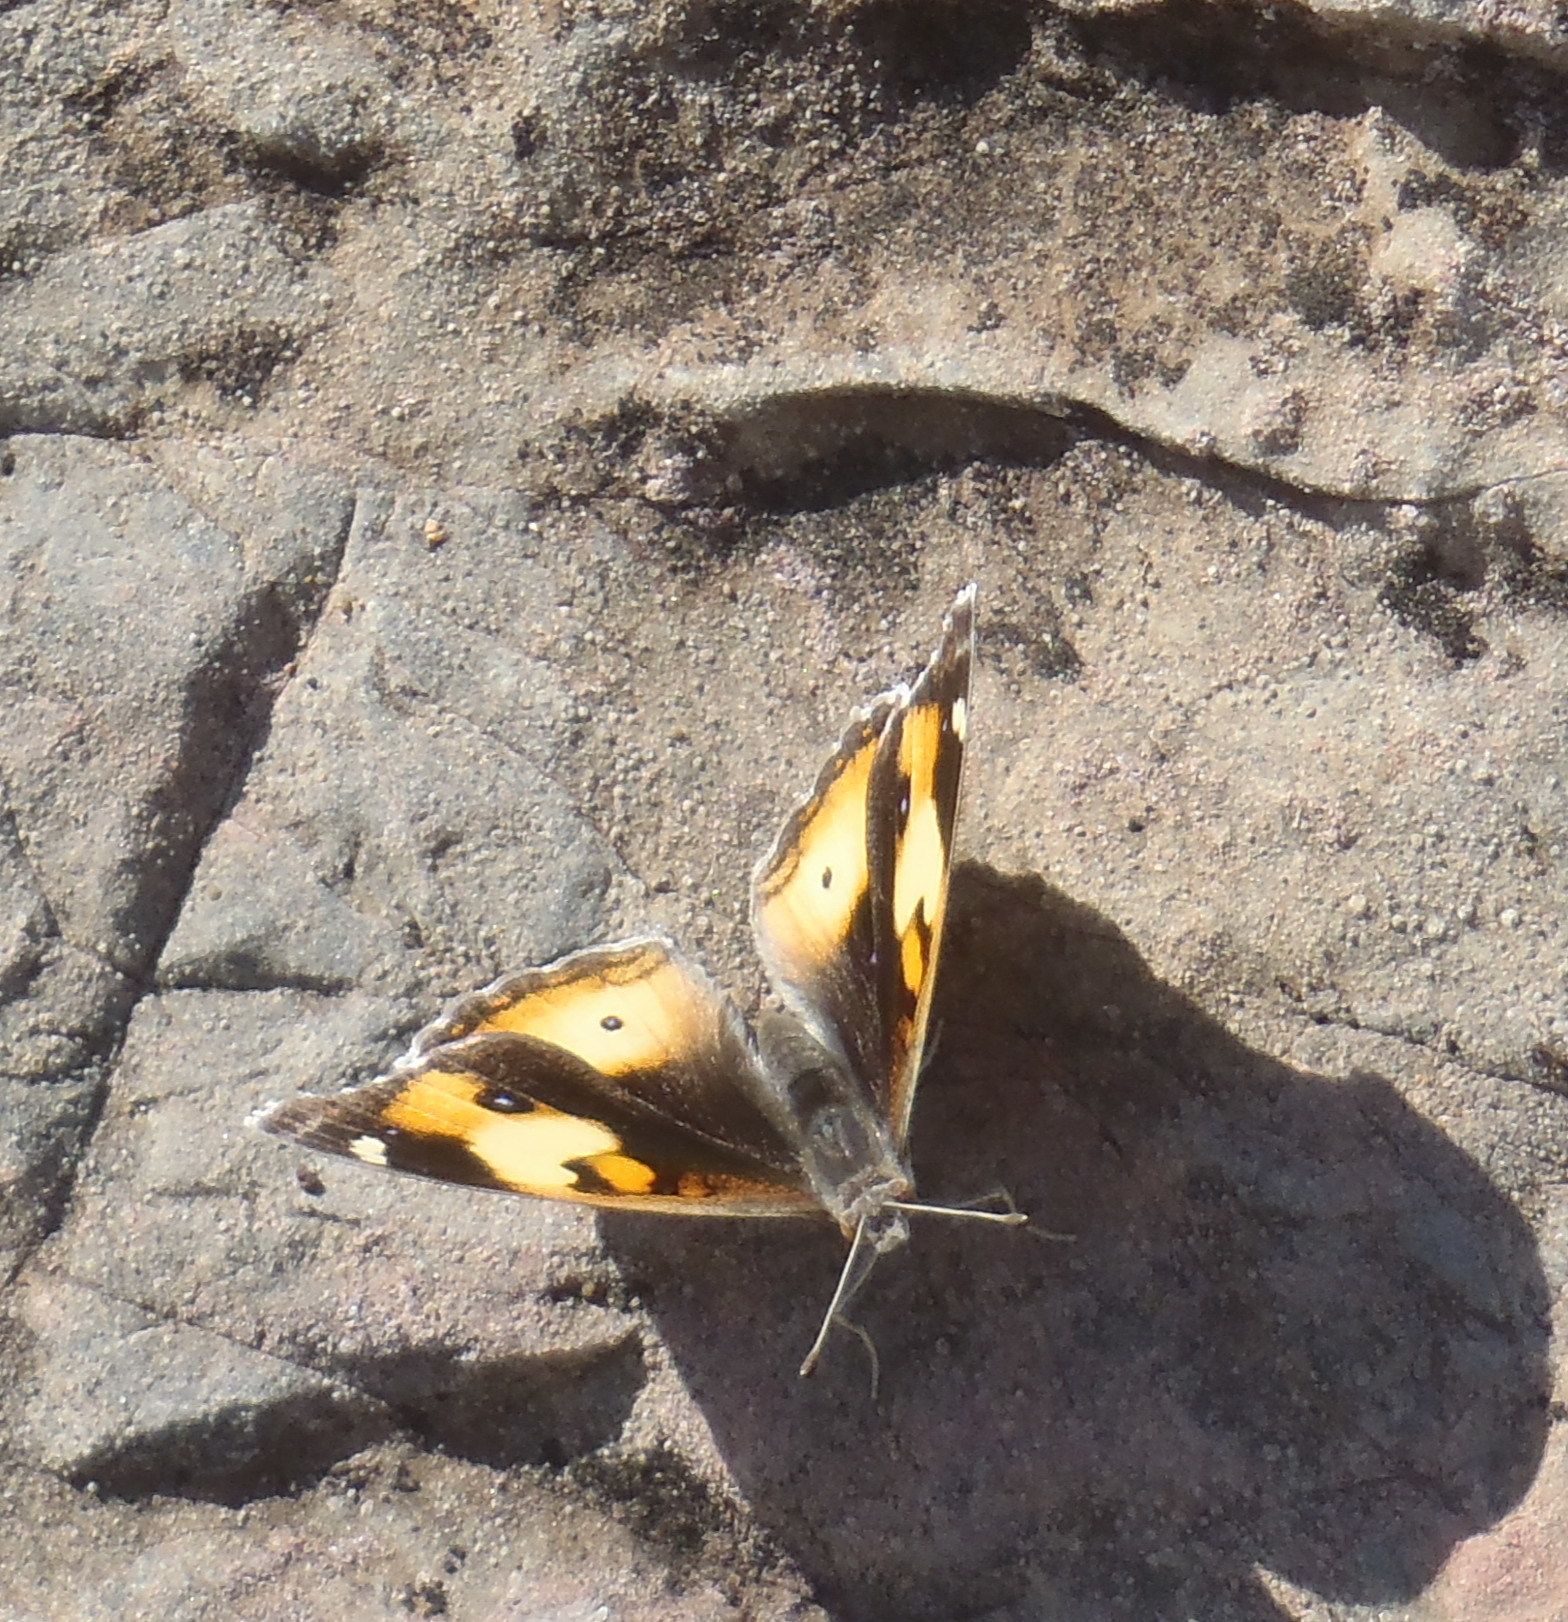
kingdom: Animalia
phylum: Arthropoda
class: Insecta
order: Lepidoptera
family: Nymphalidae
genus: Junonia
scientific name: Junonia hierta
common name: Yellow pansy
